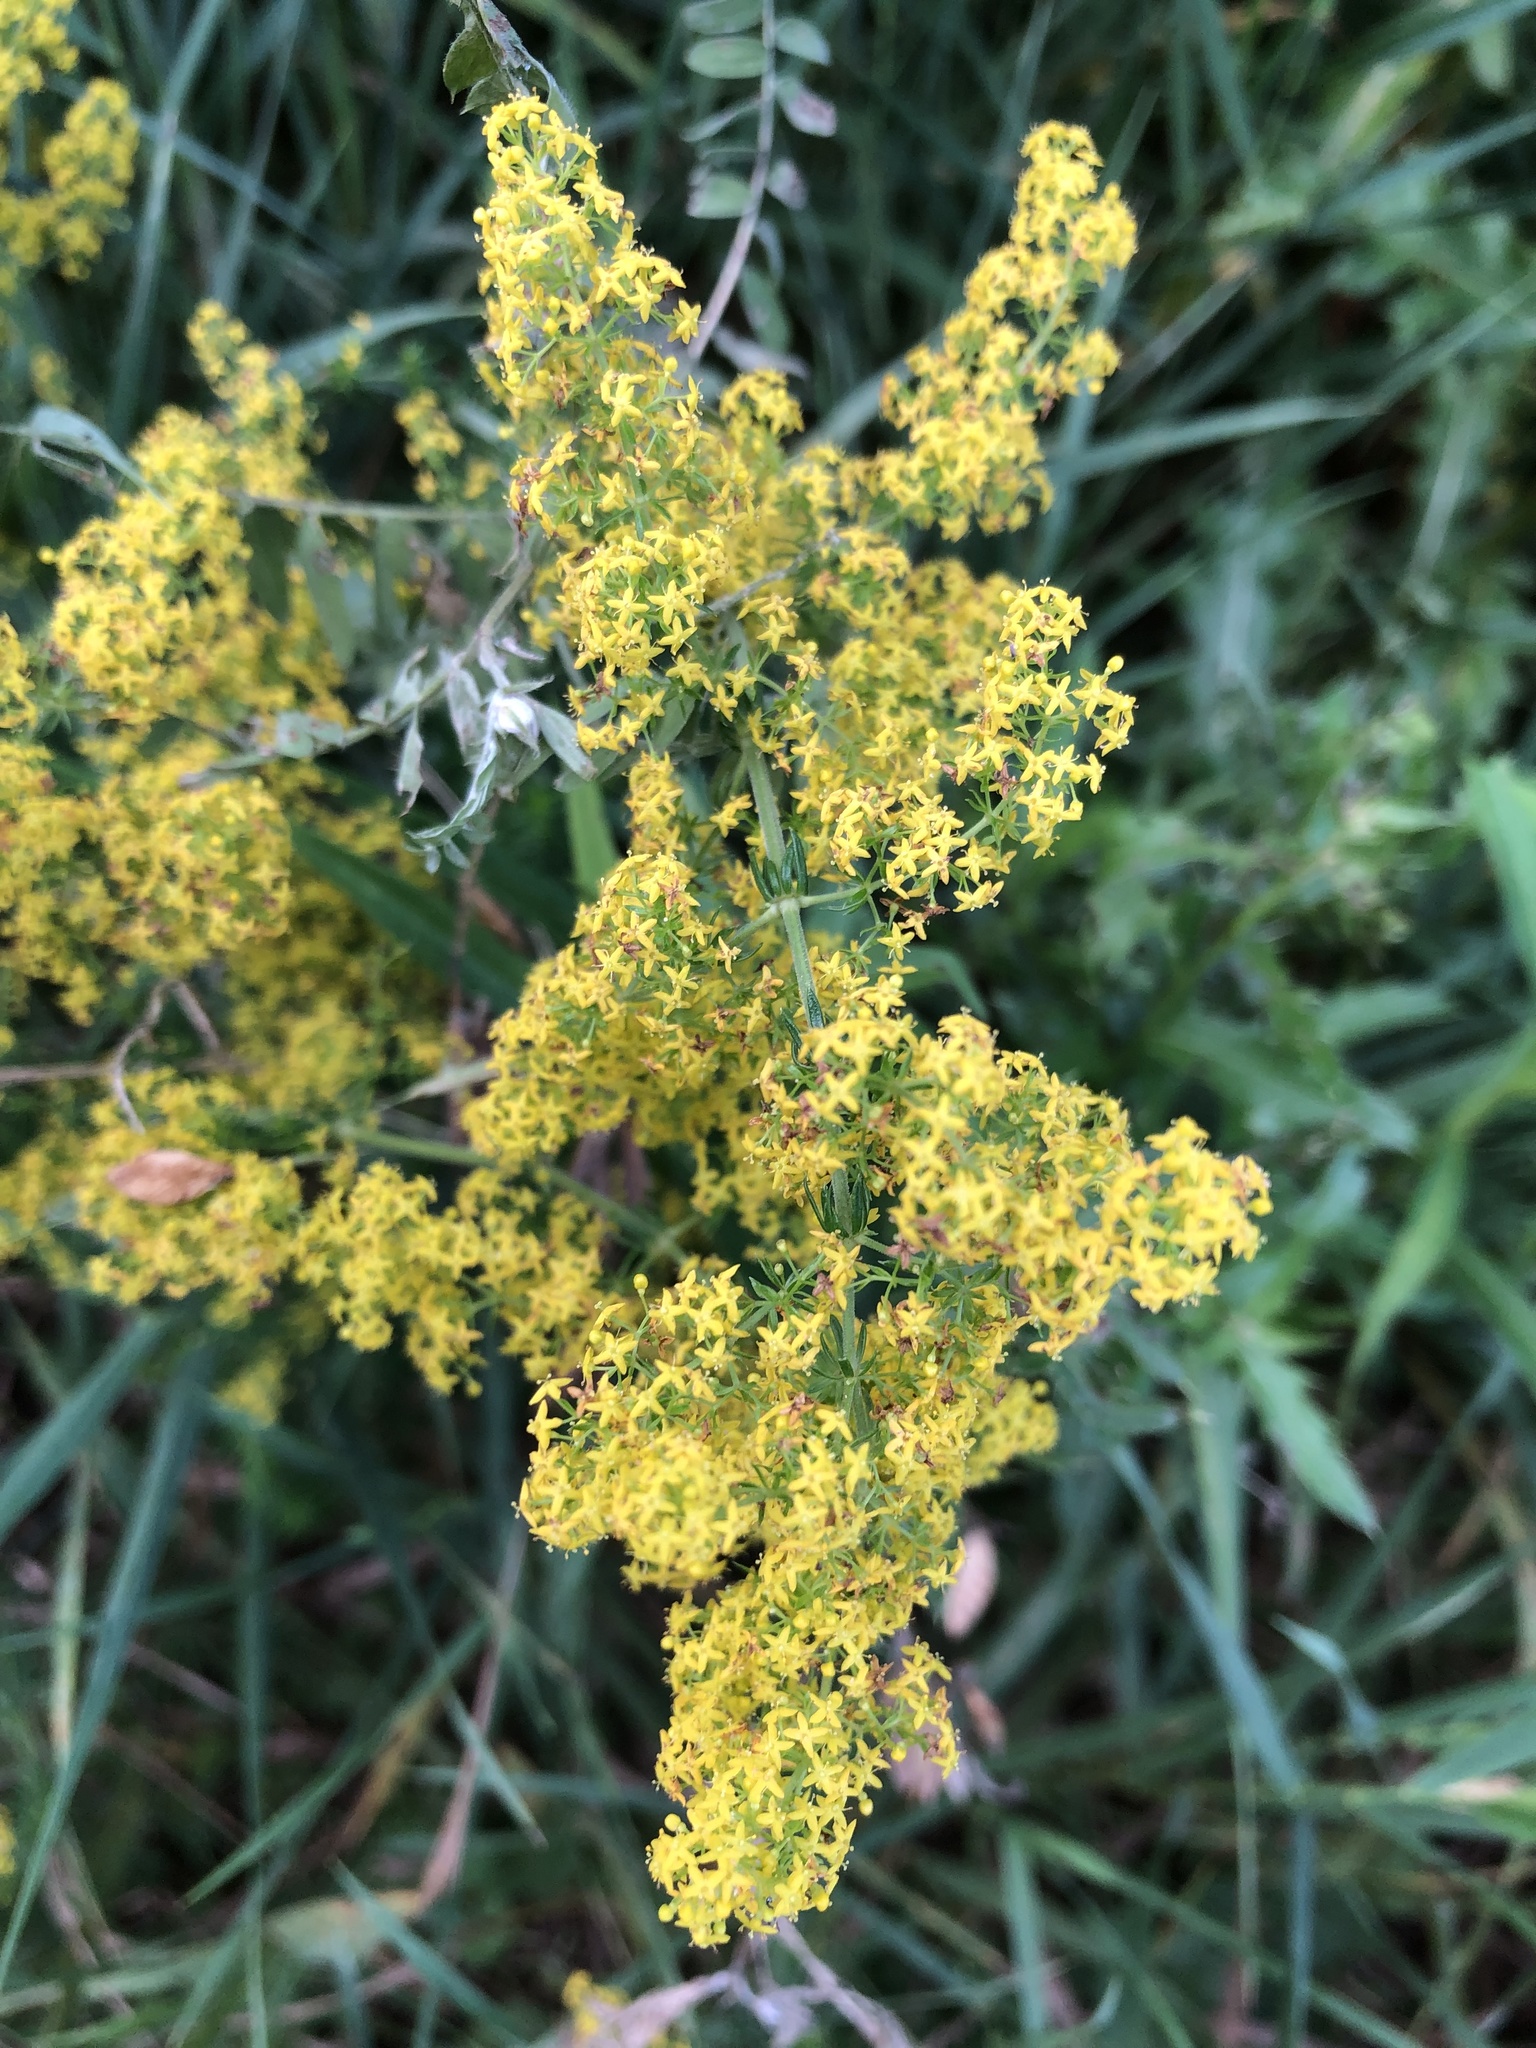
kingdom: Plantae
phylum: Tracheophyta
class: Magnoliopsida
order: Gentianales
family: Rubiaceae
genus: Galium
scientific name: Galium verum
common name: Lady's bedstraw
